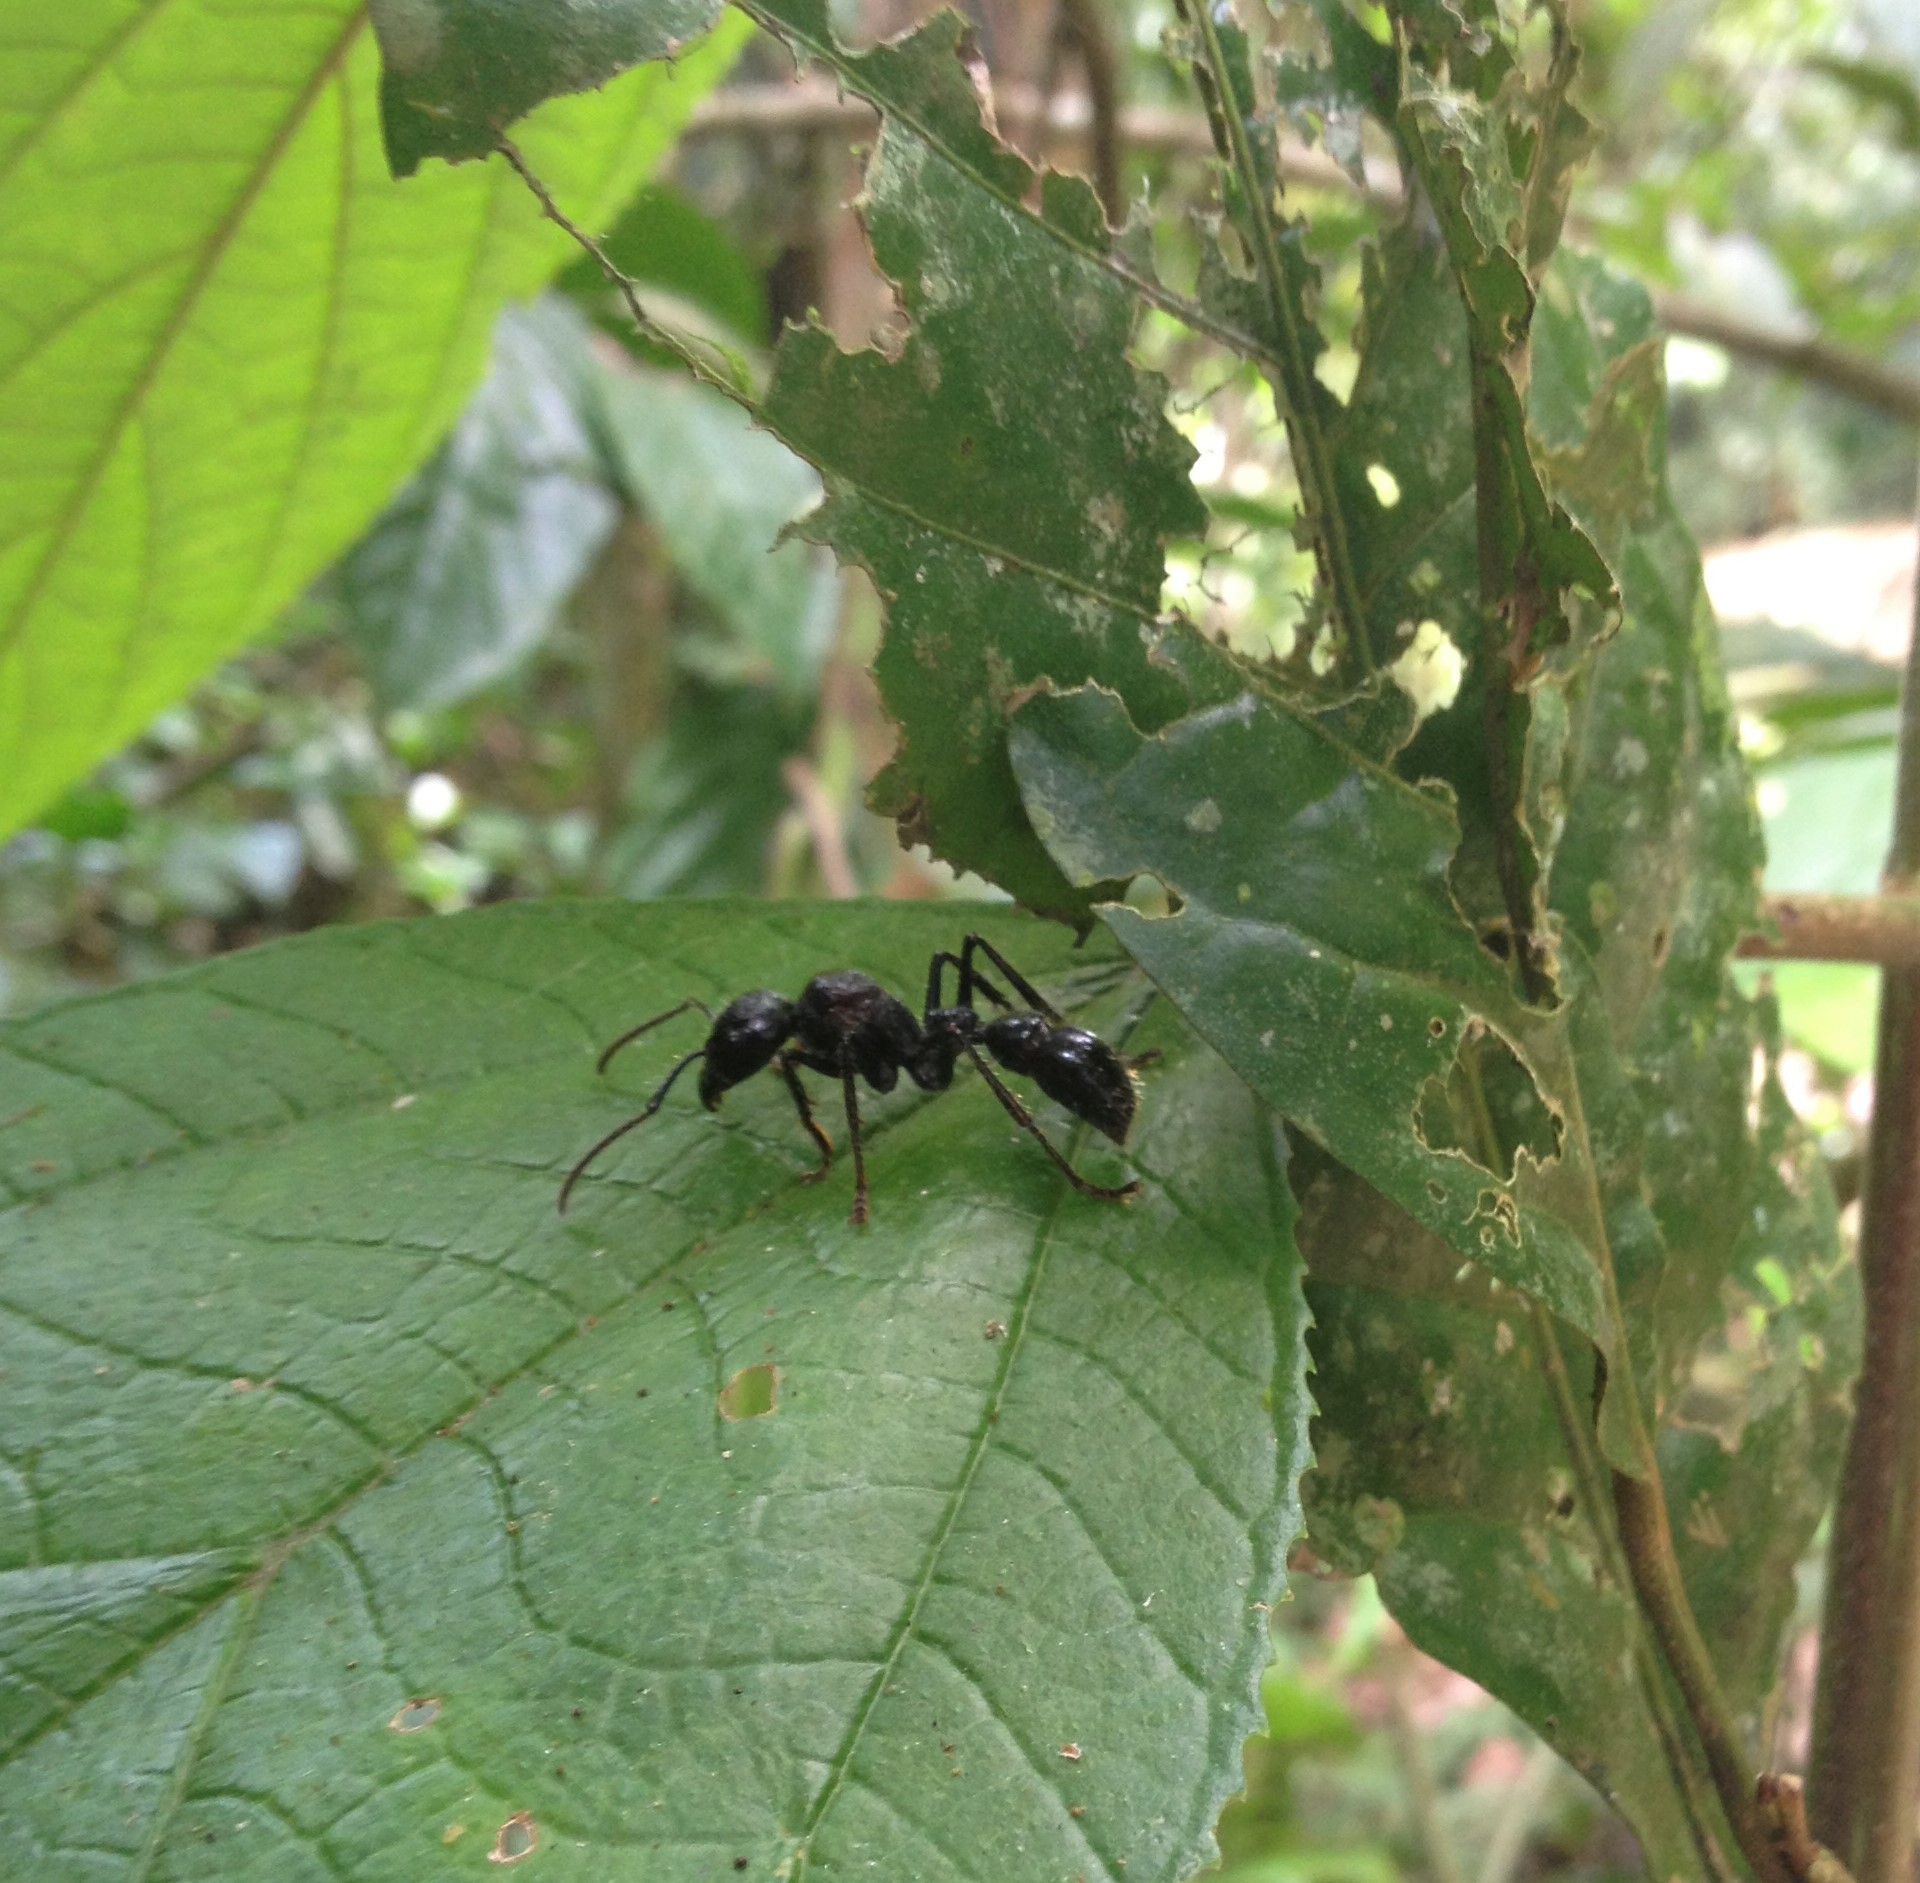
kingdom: Animalia
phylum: Arthropoda
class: Insecta
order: Hymenoptera
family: Formicidae
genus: Paraponera
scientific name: Paraponera clavata
